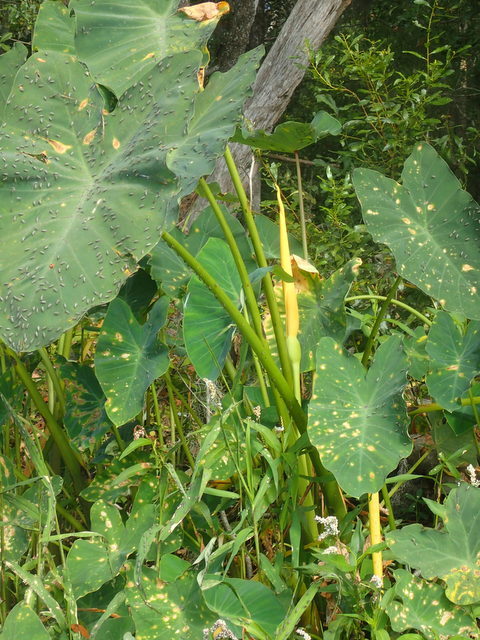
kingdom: Plantae
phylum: Tracheophyta
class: Liliopsida
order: Alismatales
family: Araceae
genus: Colocasia
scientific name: Colocasia esculenta
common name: Taro
